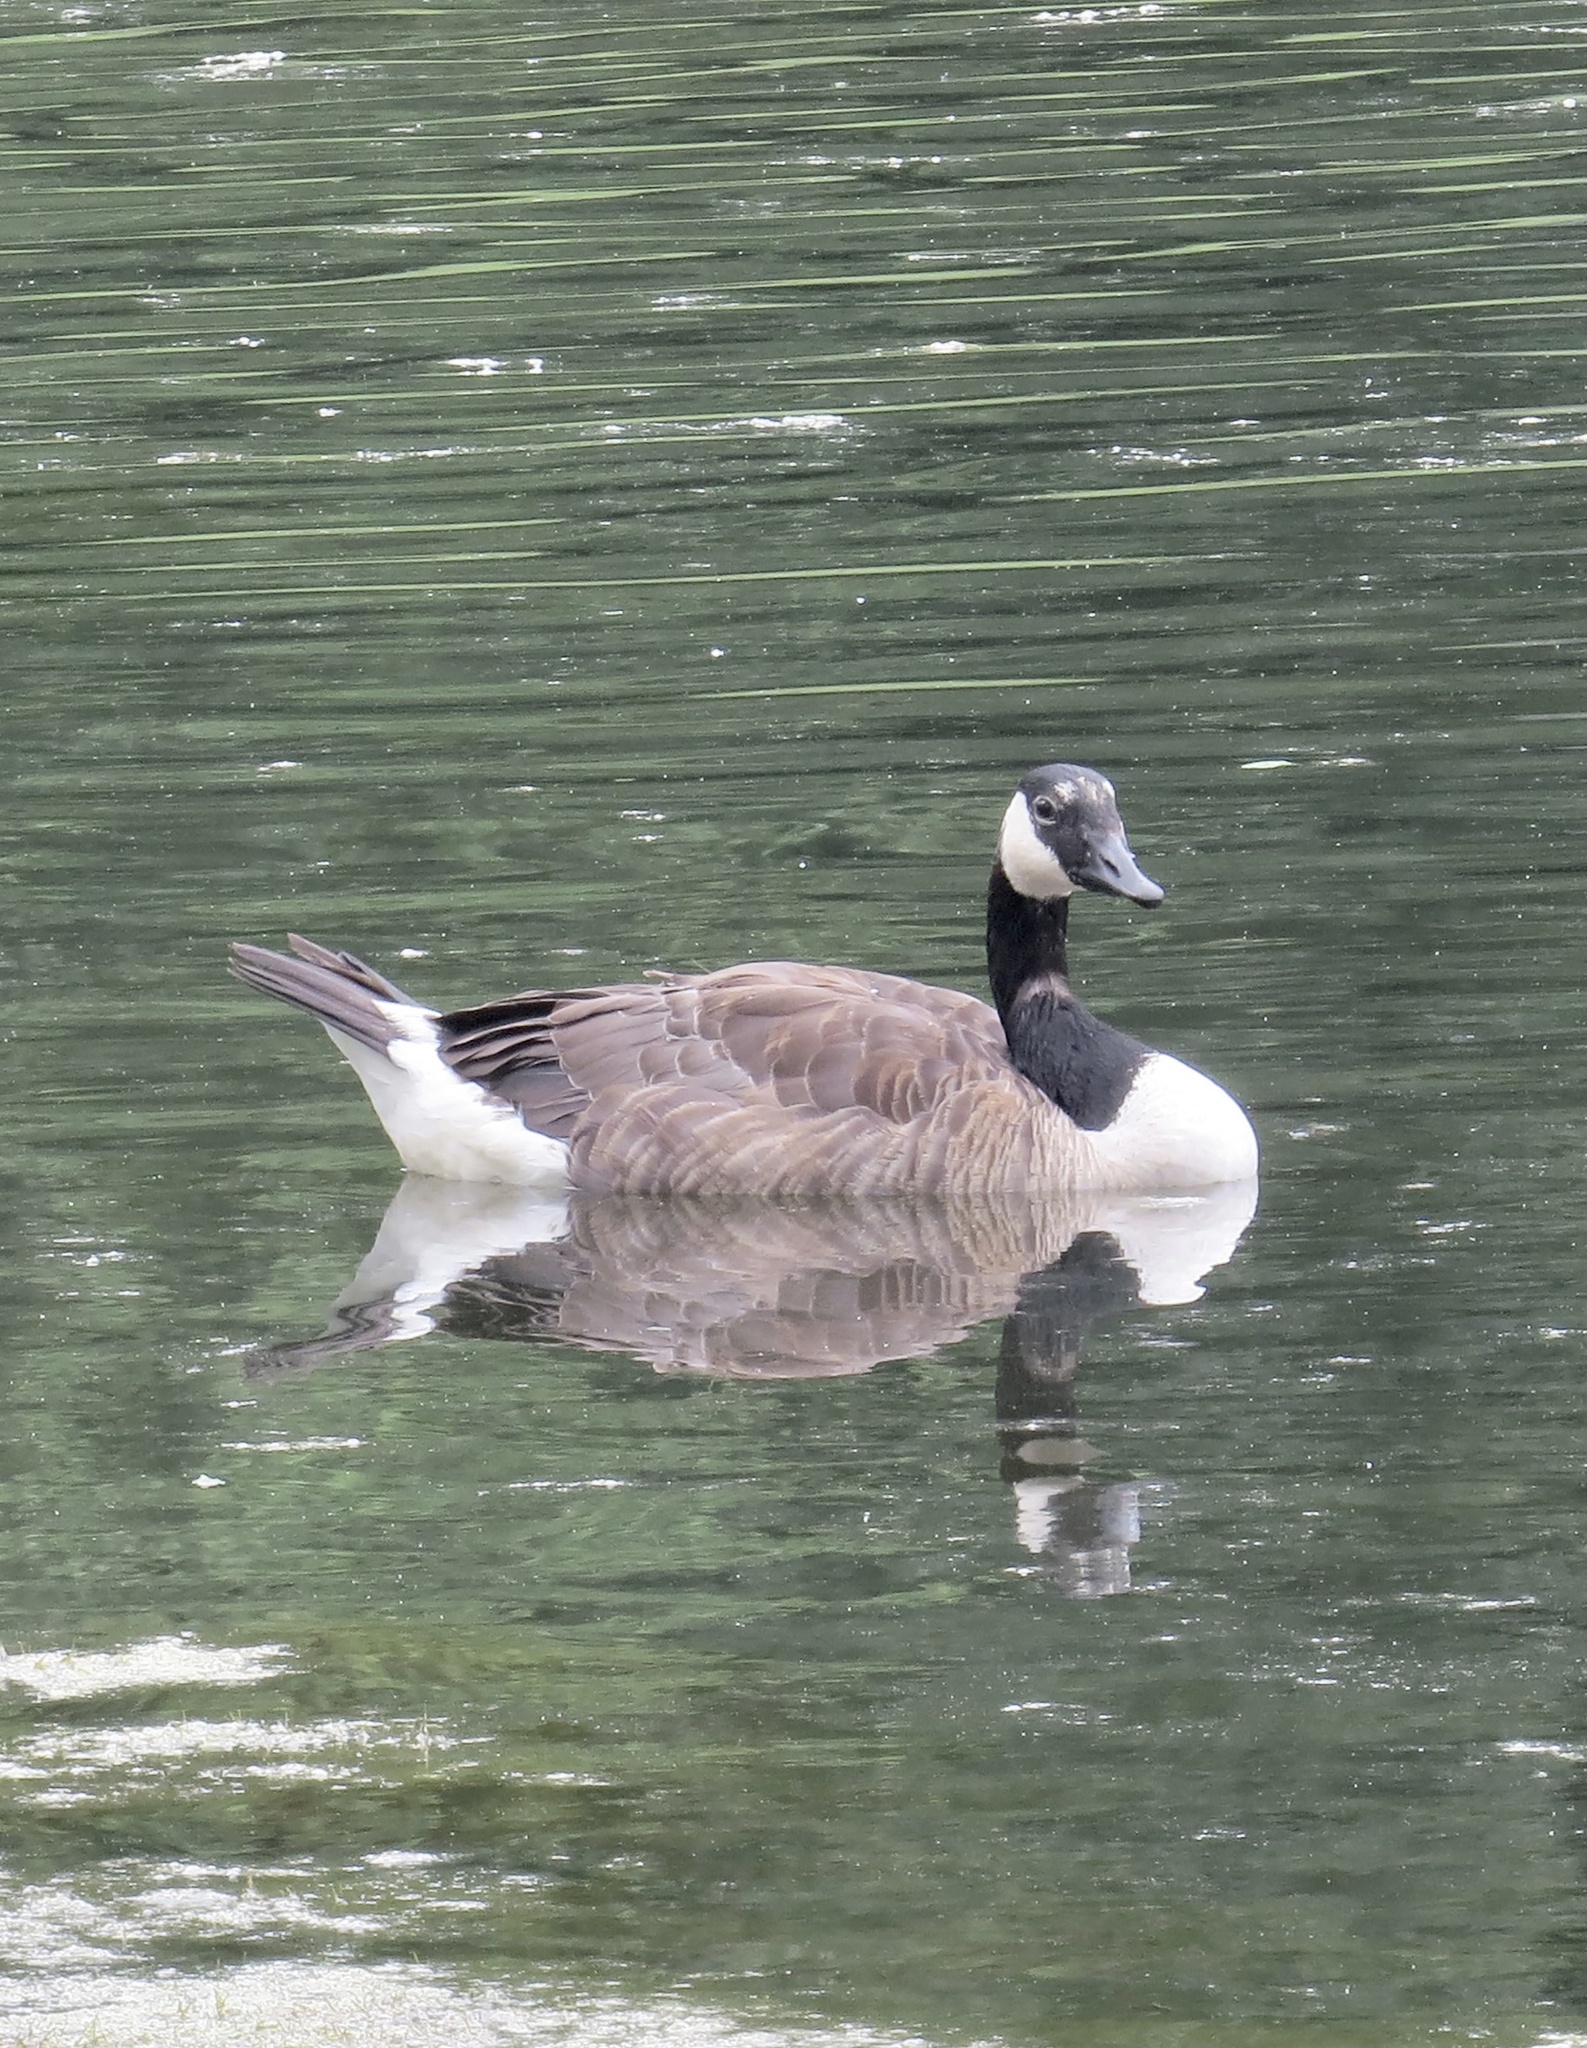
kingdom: Animalia
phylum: Chordata
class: Aves
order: Anseriformes
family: Anatidae
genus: Branta
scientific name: Branta canadensis
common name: Canada goose
